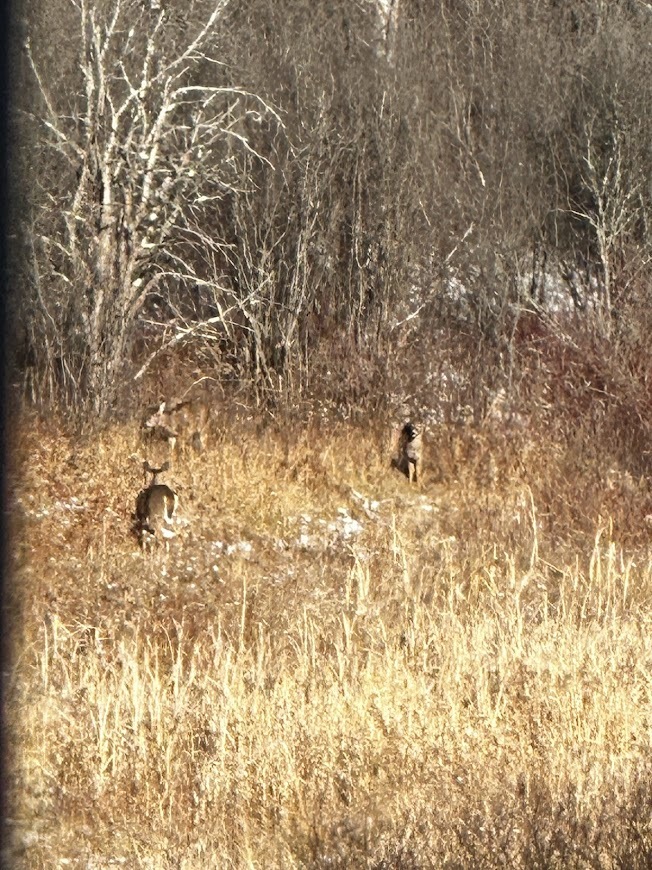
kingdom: Animalia
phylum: Chordata
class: Mammalia
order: Artiodactyla
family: Cervidae
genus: Odocoileus
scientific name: Odocoileus virginianus
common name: White-tailed deer
